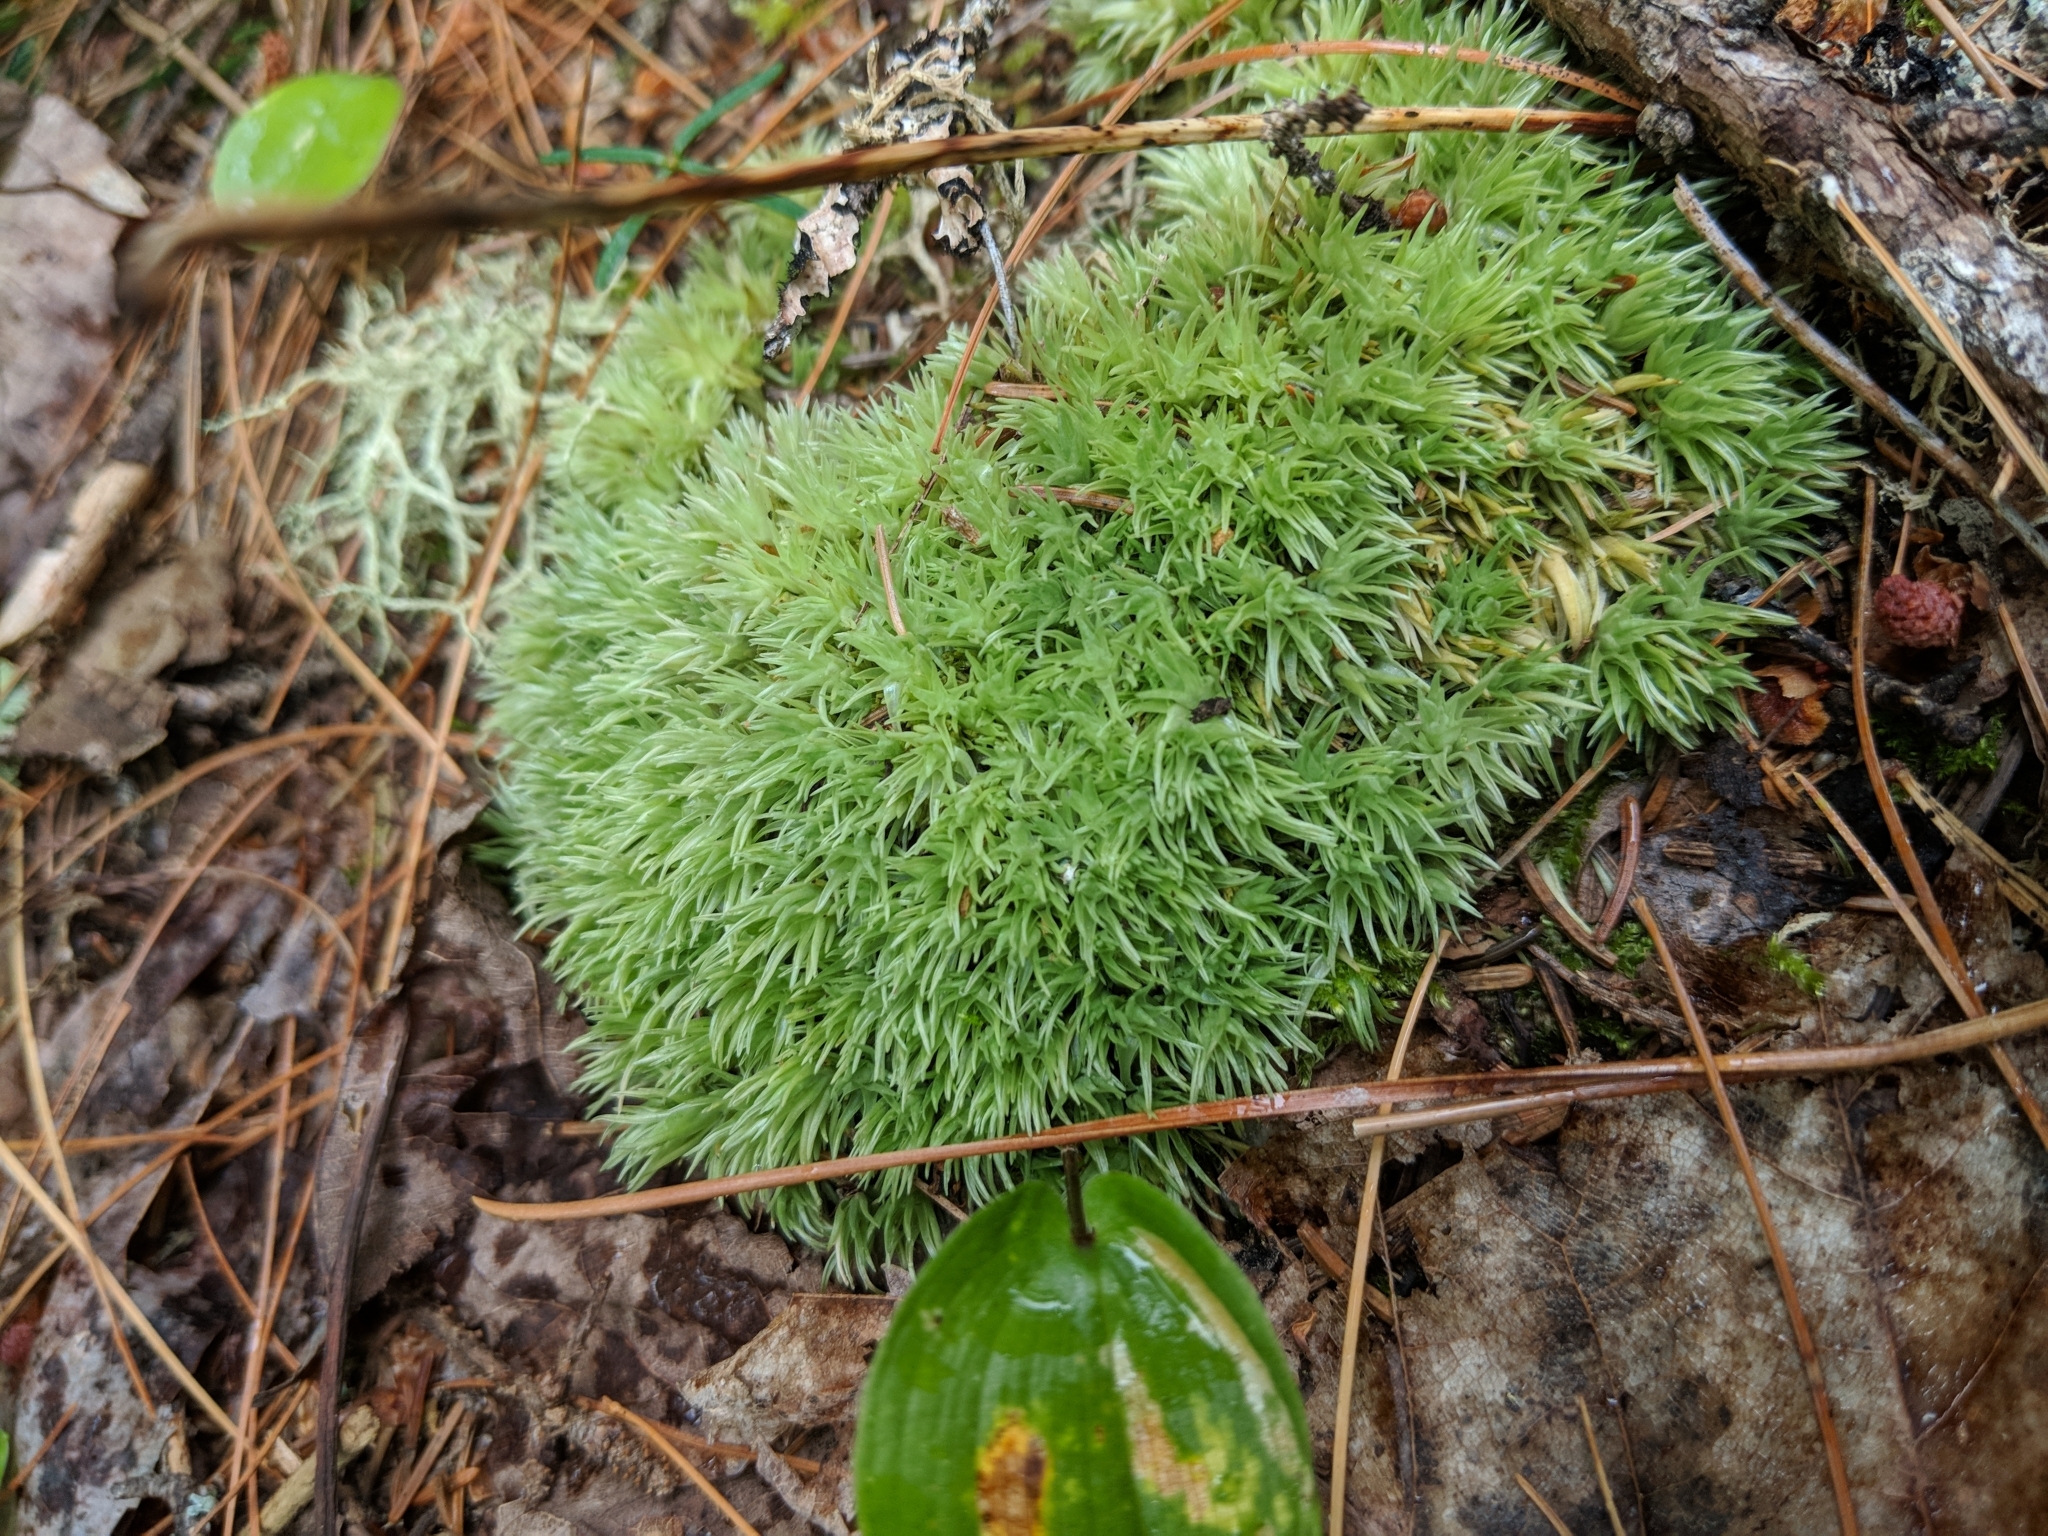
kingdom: Plantae
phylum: Bryophyta
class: Bryopsida
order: Dicranales
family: Leucobryaceae
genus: Leucobryum
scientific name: Leucobryum glaucum
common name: Large white-moss
